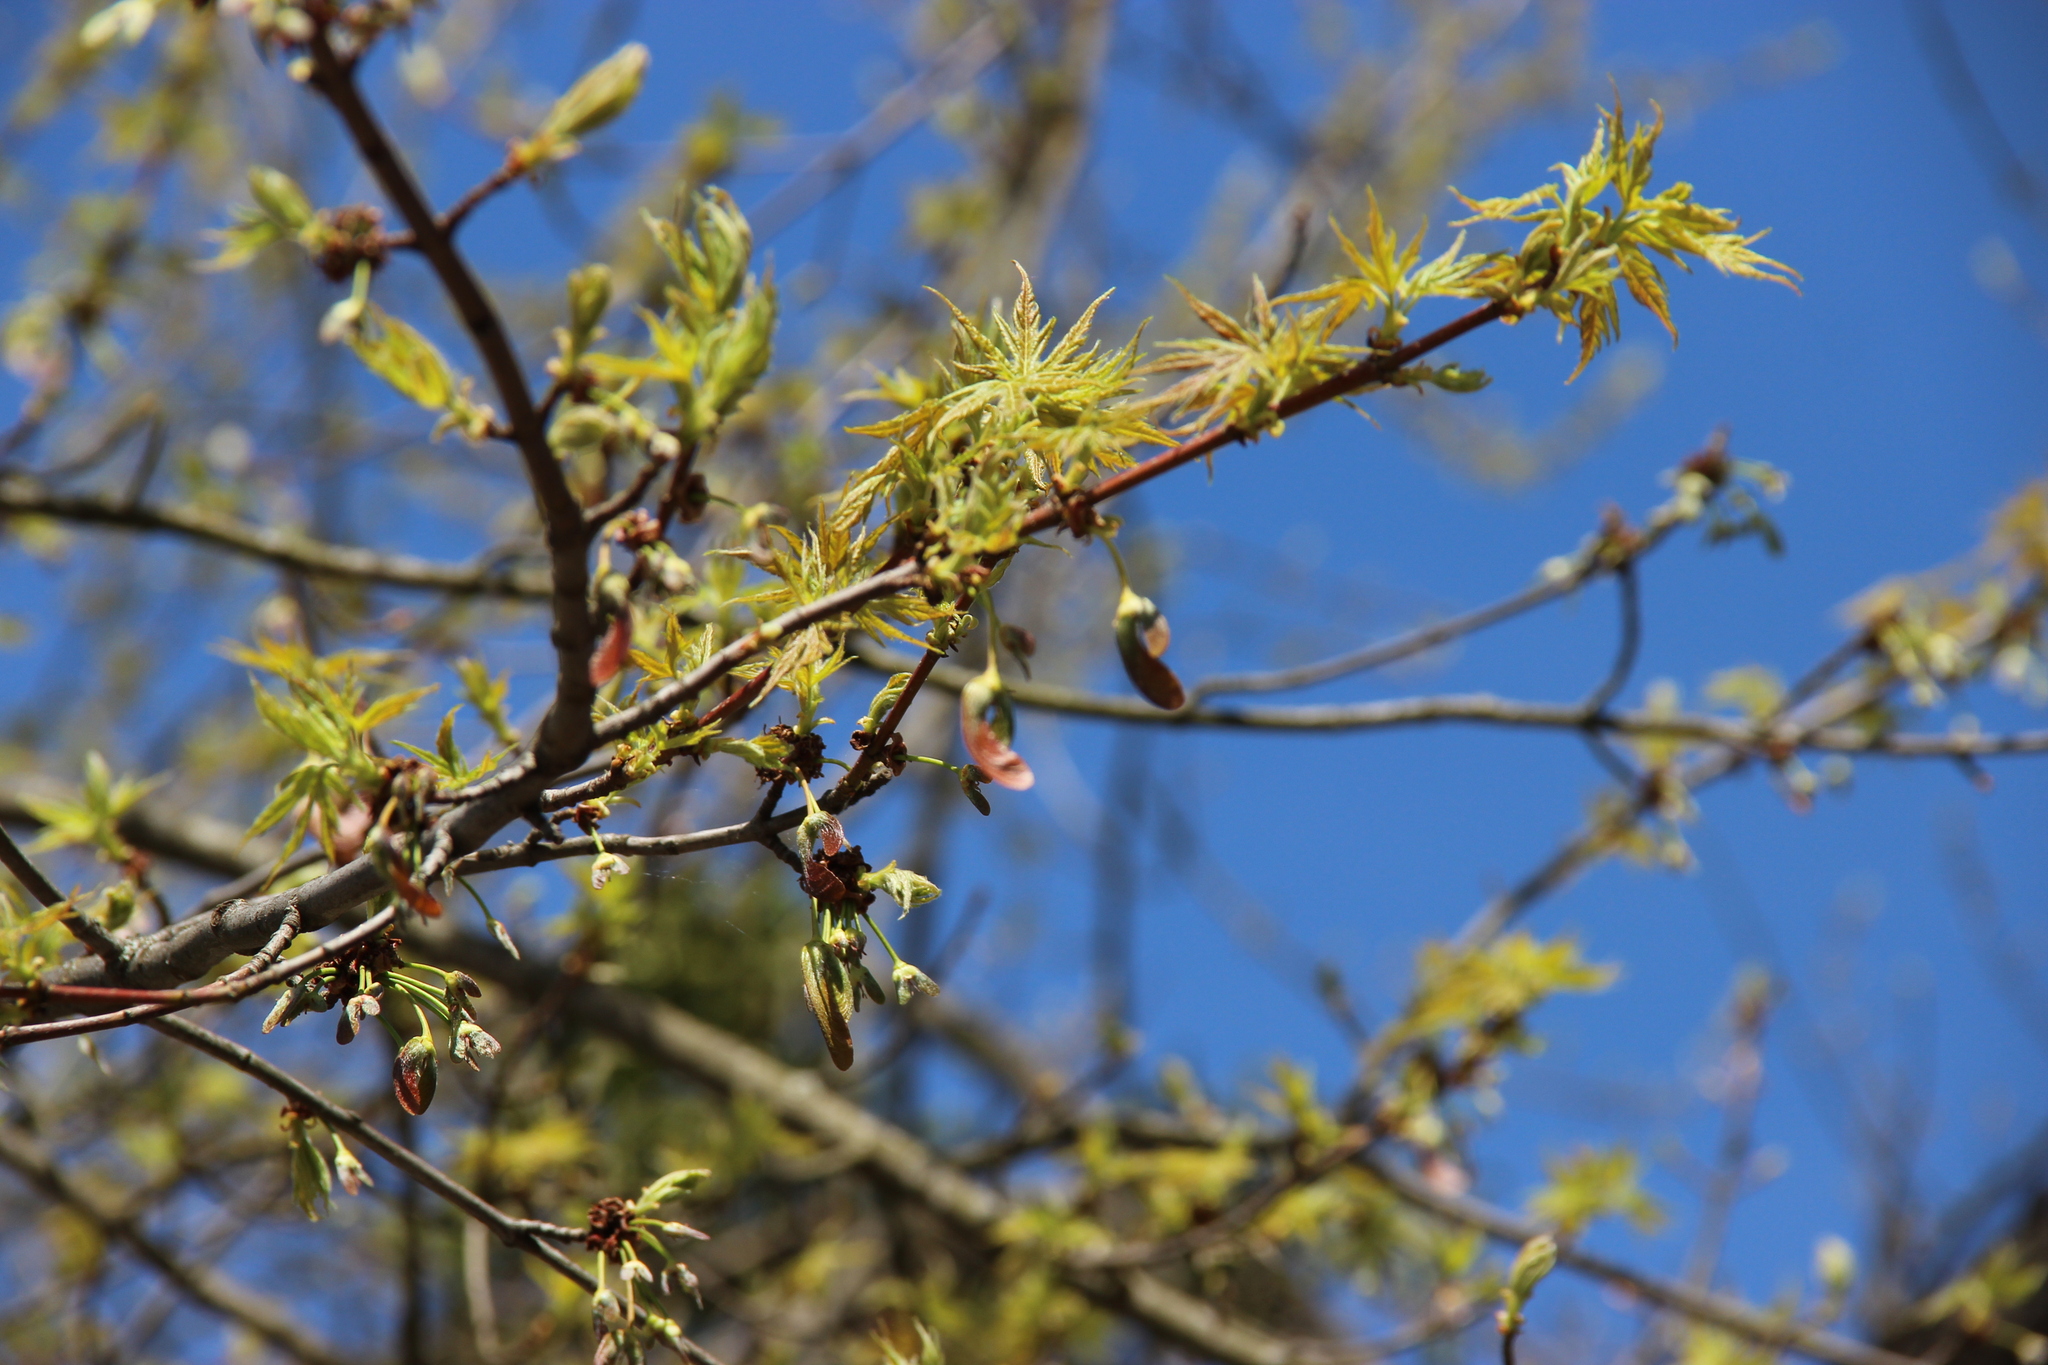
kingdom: Plantae
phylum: Tracheophyta
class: Magnoliopsida
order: Sapindales
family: Sapindaceae
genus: Acer
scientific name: Acer saccharinum
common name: Silver maple
